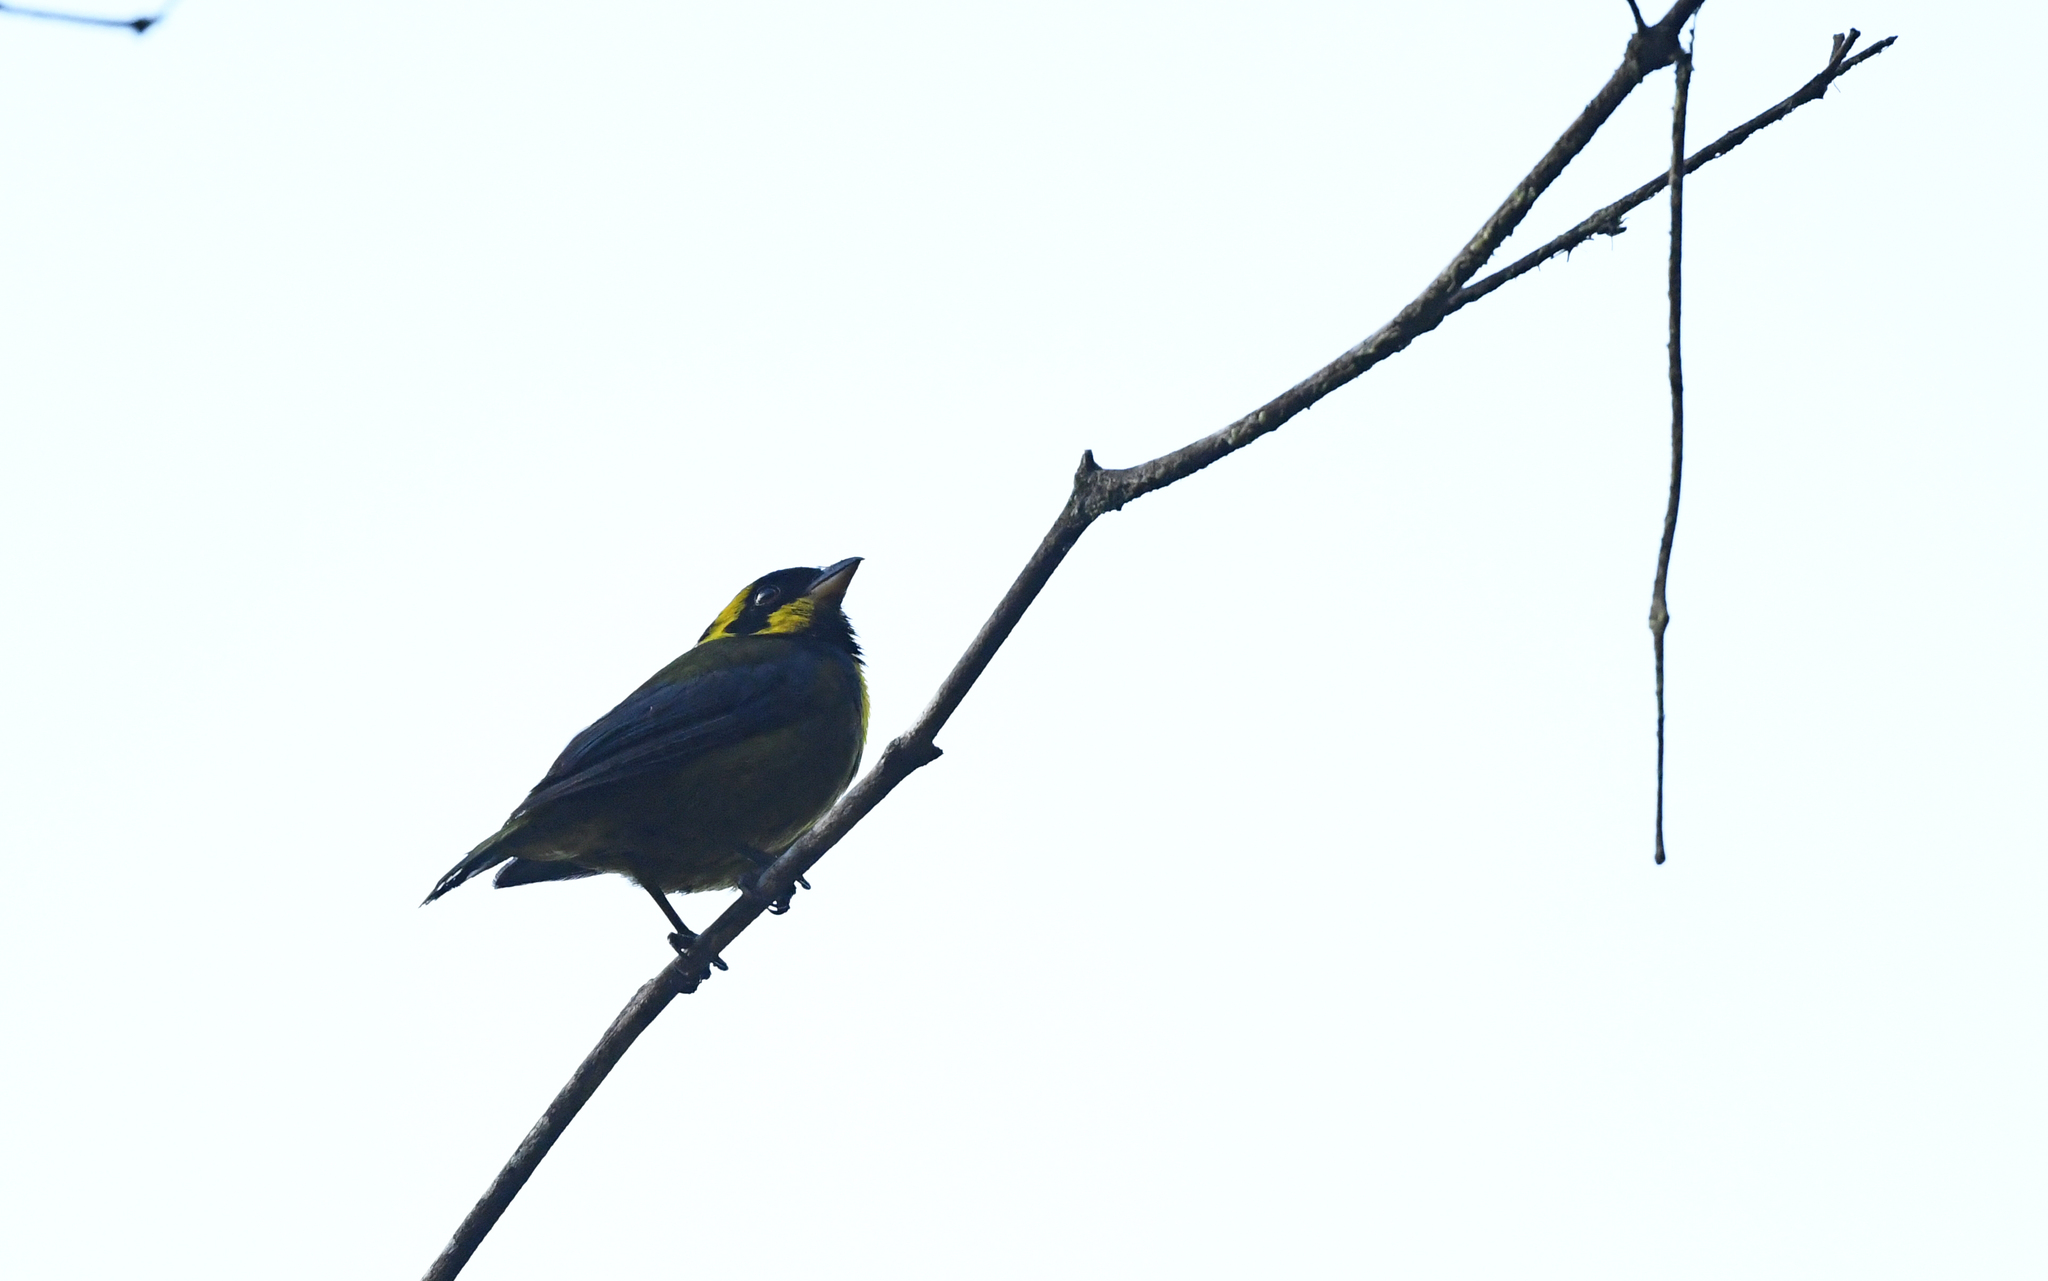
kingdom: Animalia
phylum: Chordata
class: Aves
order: Passeriformes
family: Thraupidae
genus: Bangsia
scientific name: Bangsia aureocincta
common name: Gold-ringed tanager
